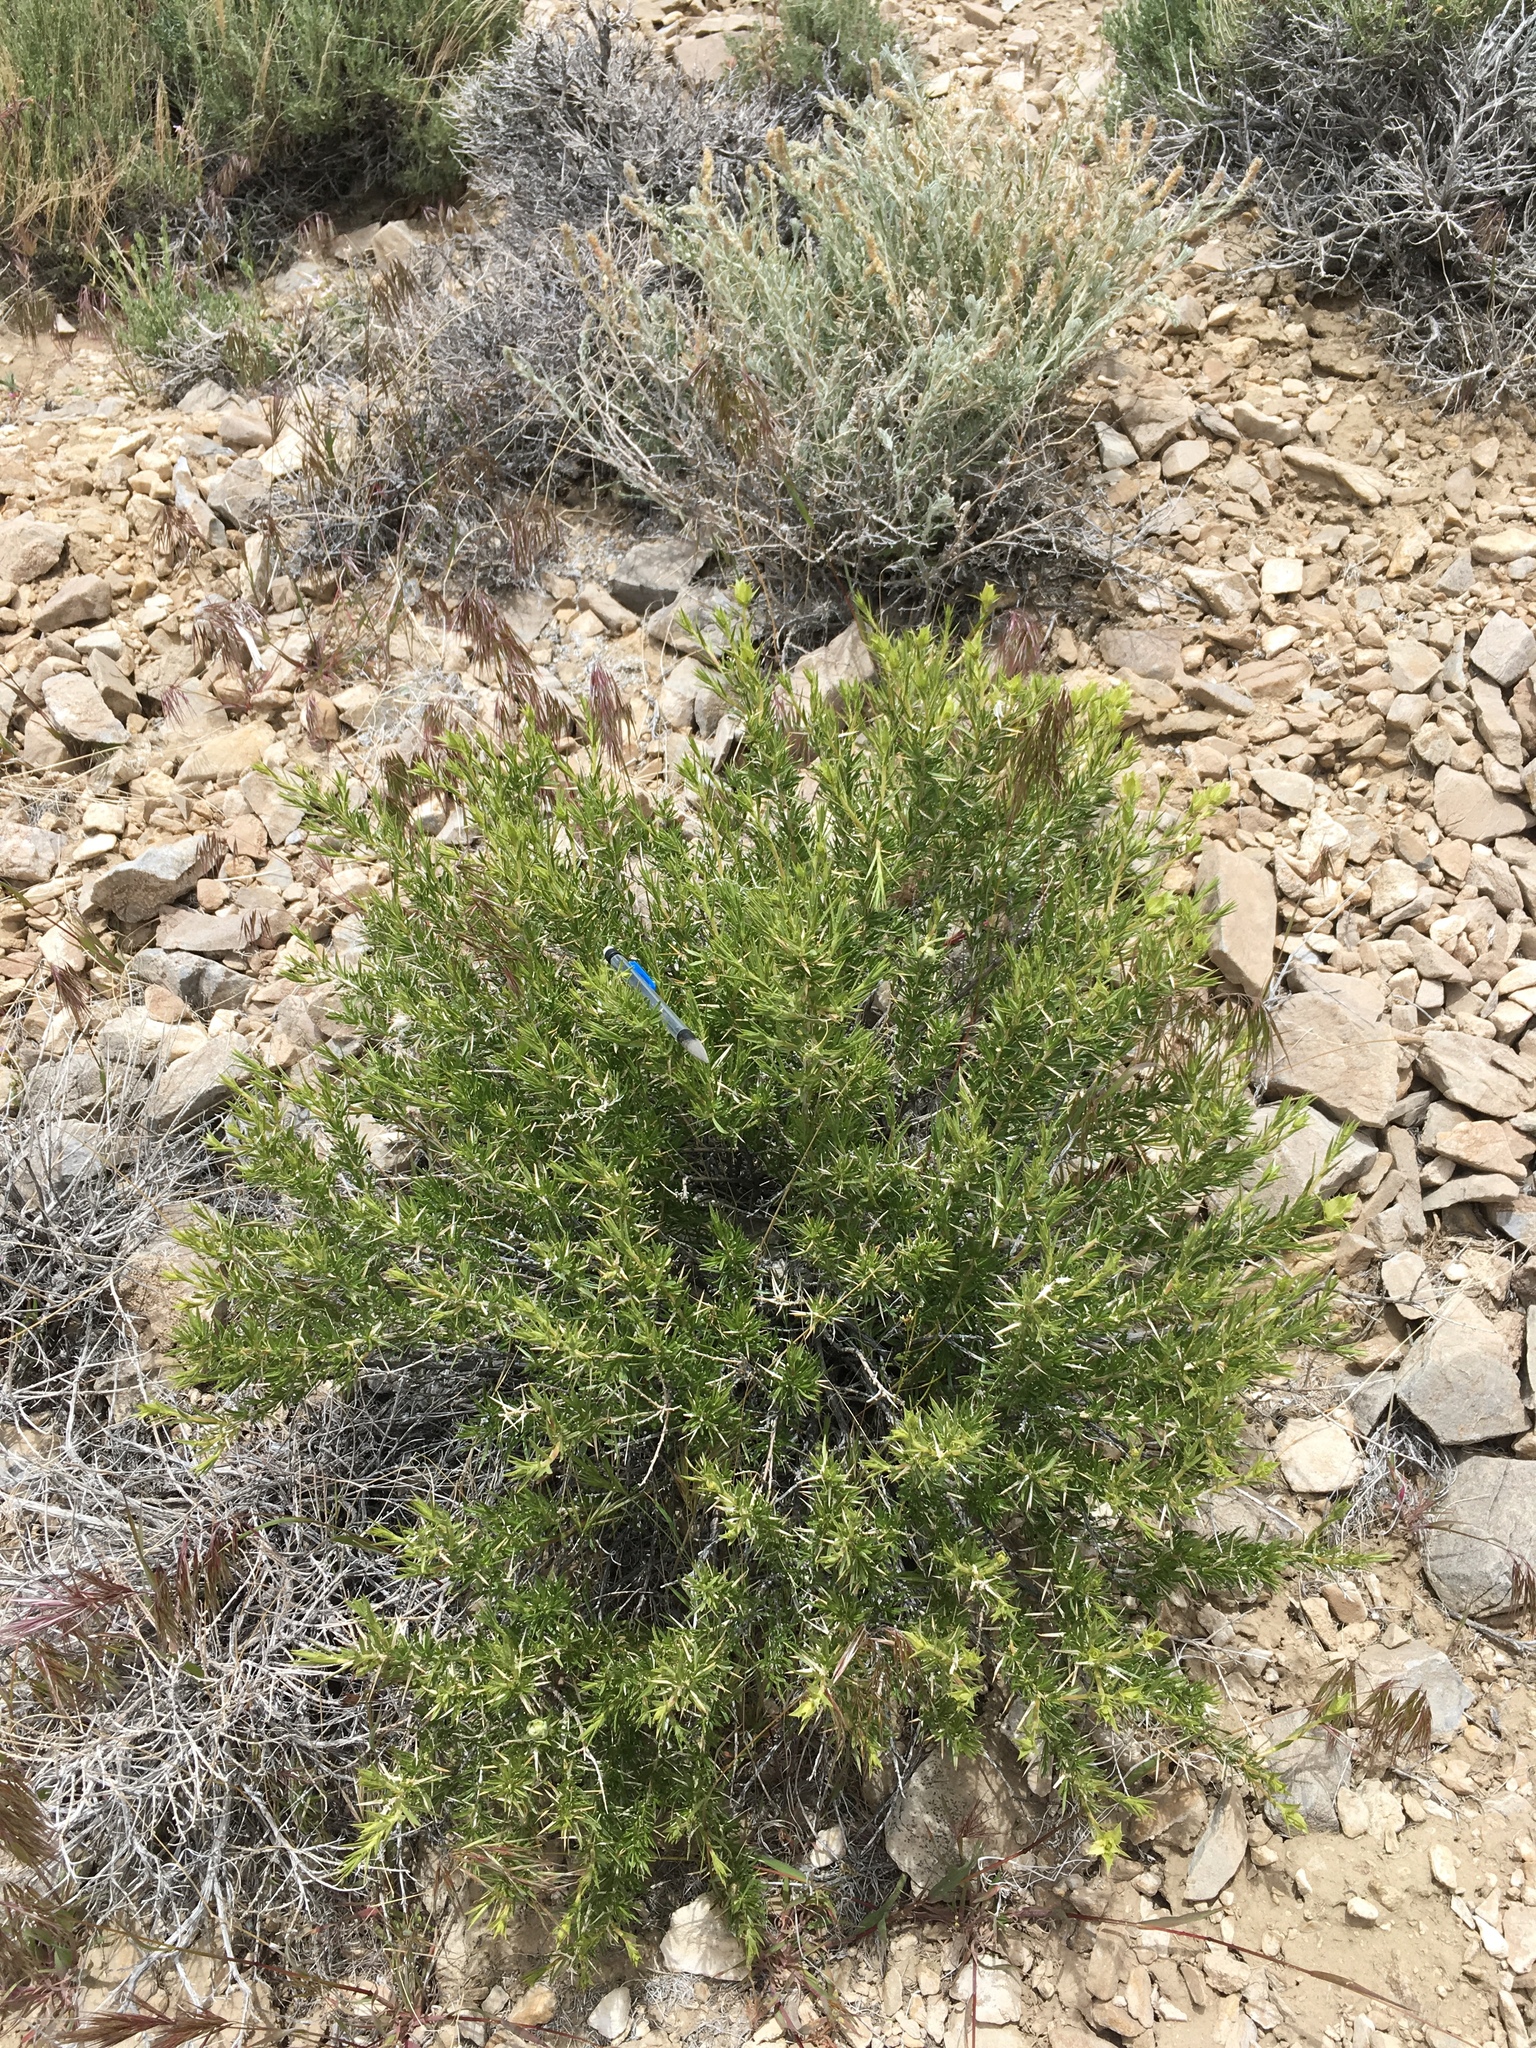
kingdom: Plantae
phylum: Tracheophyta
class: Magnoliopsida
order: Asterales
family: Asteraceae
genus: Hecastocleis
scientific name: Hecastocleis shockleyi
